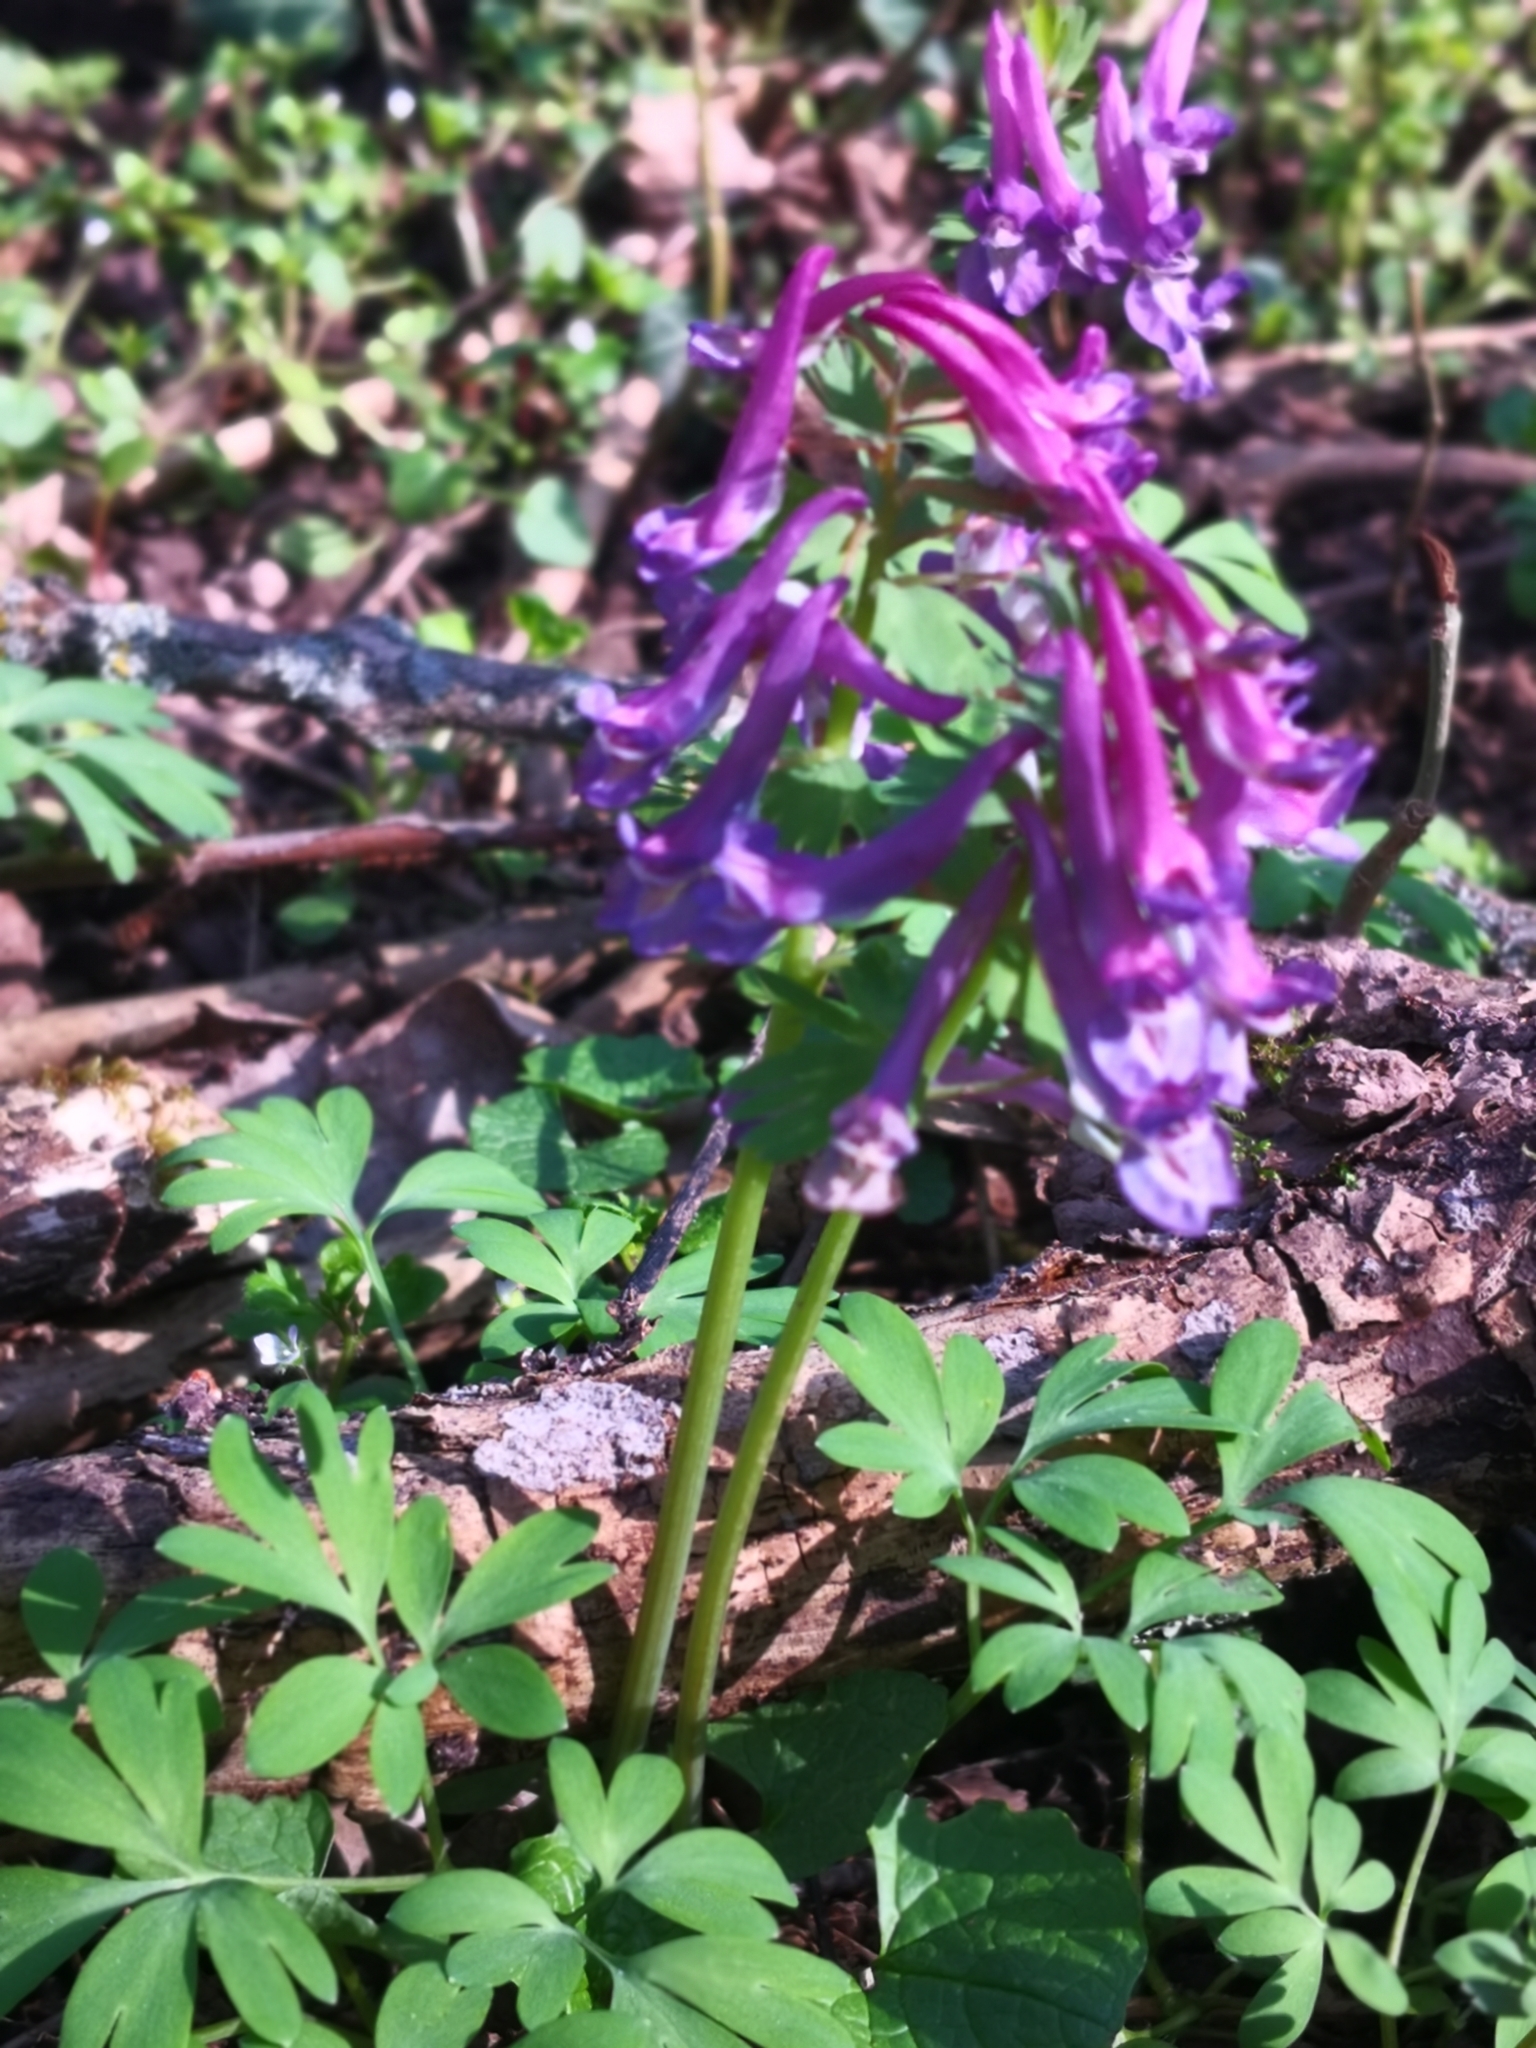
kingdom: Plantae
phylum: Tracheophyta
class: Magnoliopsida
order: Ranunculales
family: Papaveraceae
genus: Corydalis
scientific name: Corydalis solida
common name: Bird-in-a-bush
